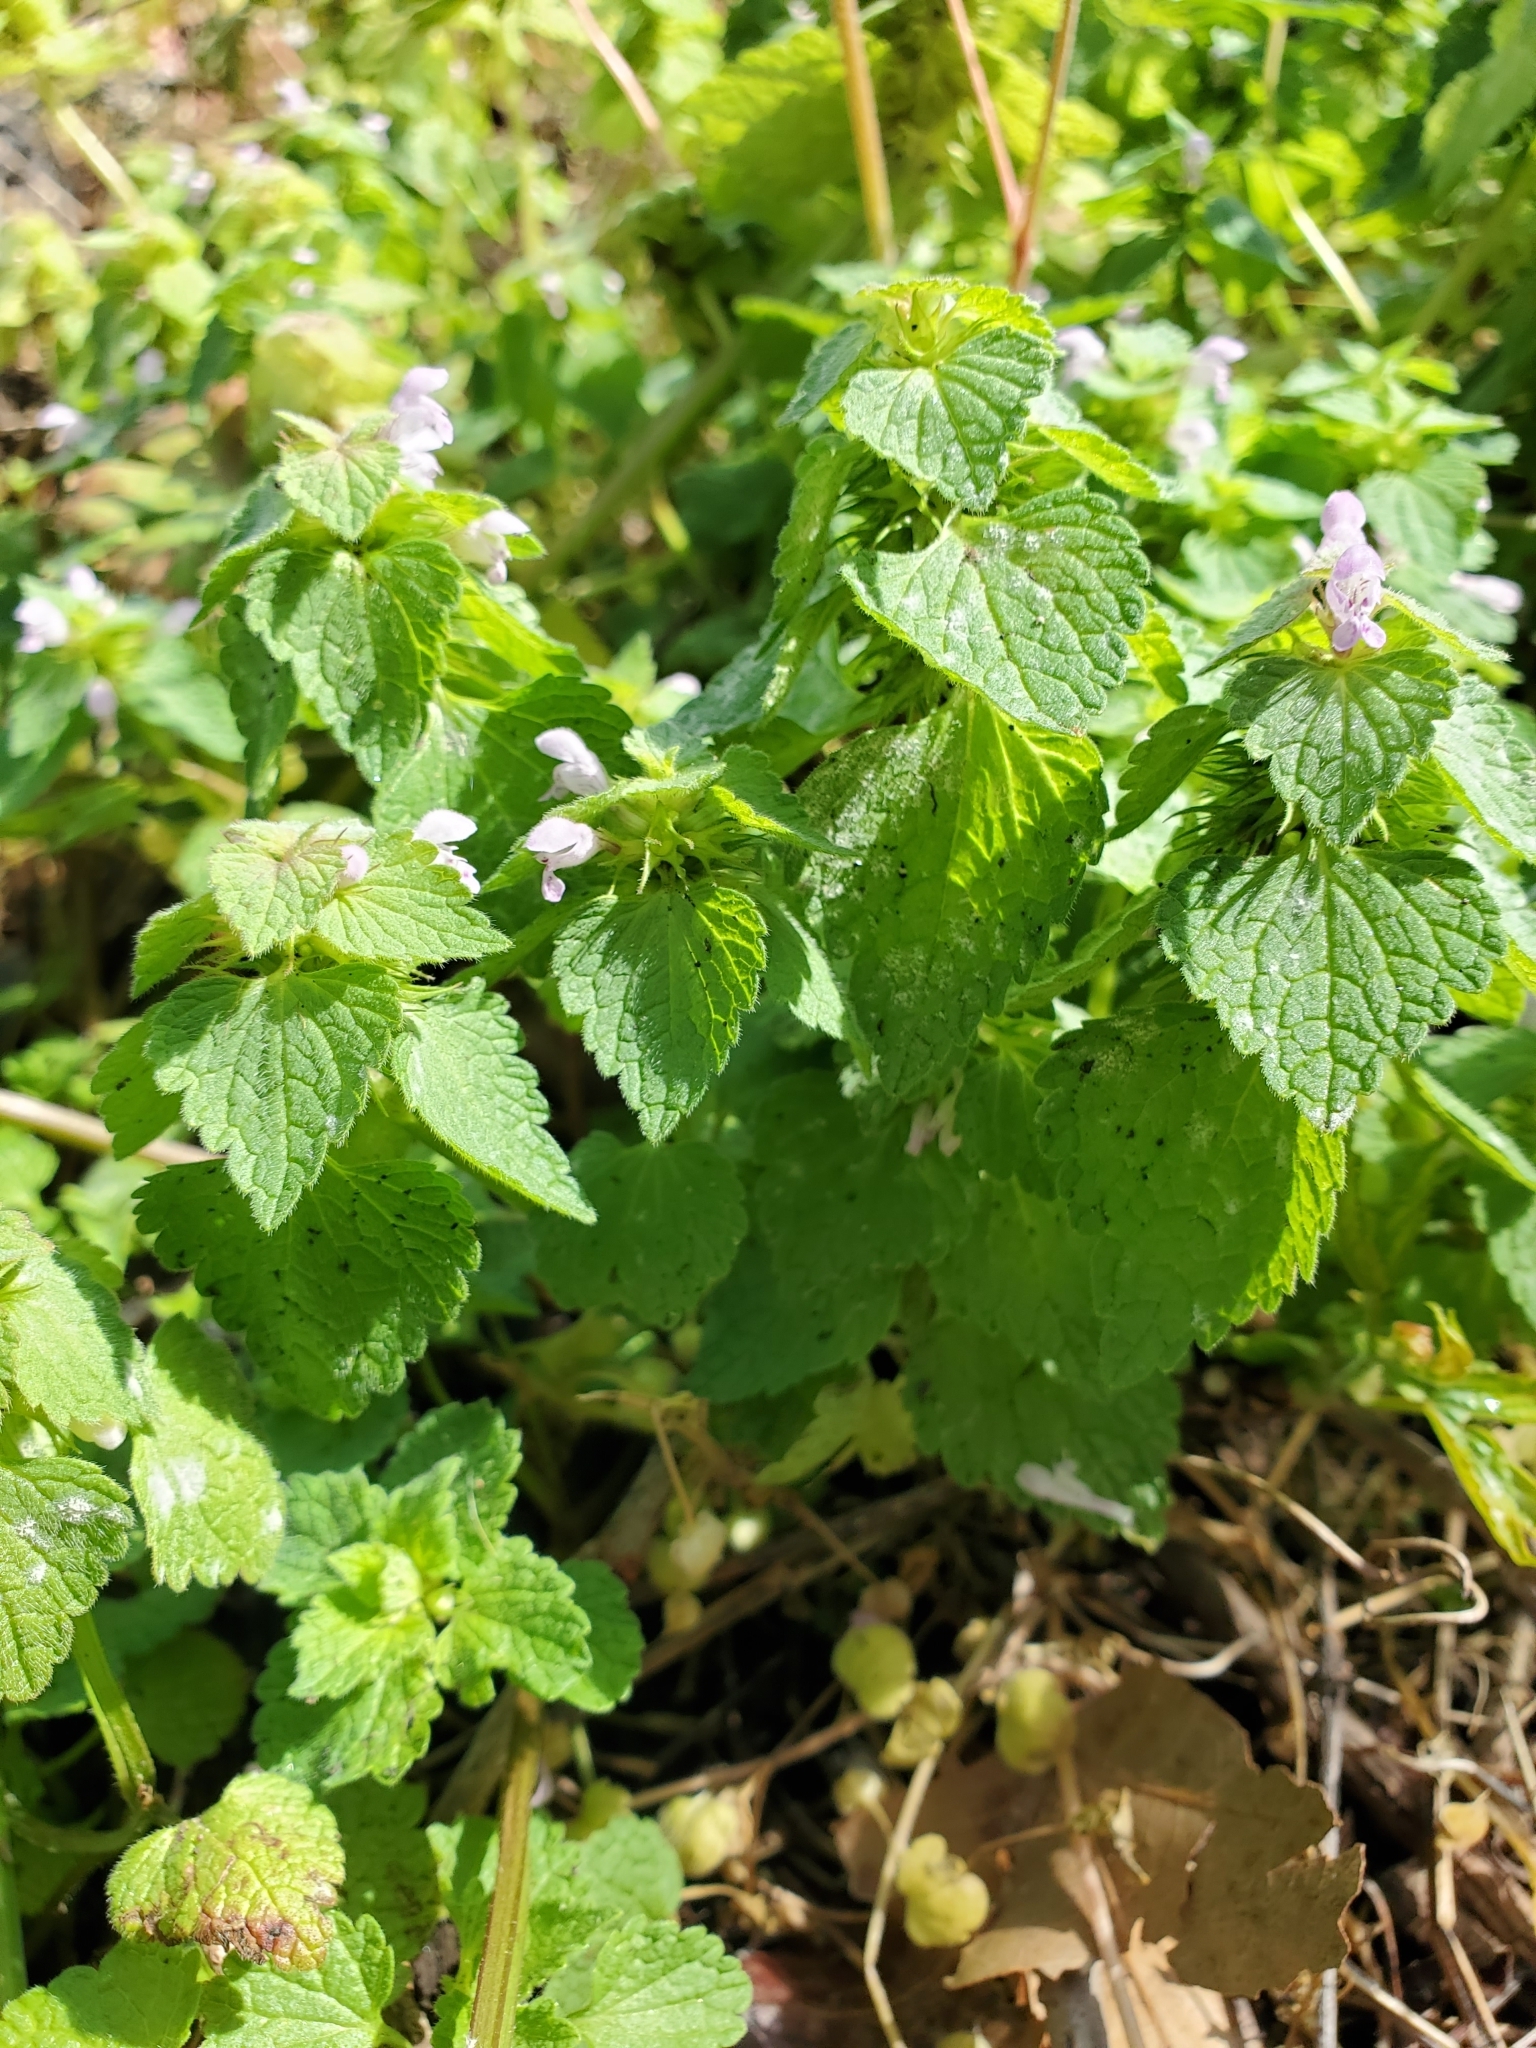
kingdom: Plantae
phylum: Tracheophyta
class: Magnoliopsida
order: Lamiales
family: Lamiaceae
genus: Lamium
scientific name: Lamium purpureum
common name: Red dead-nettle
